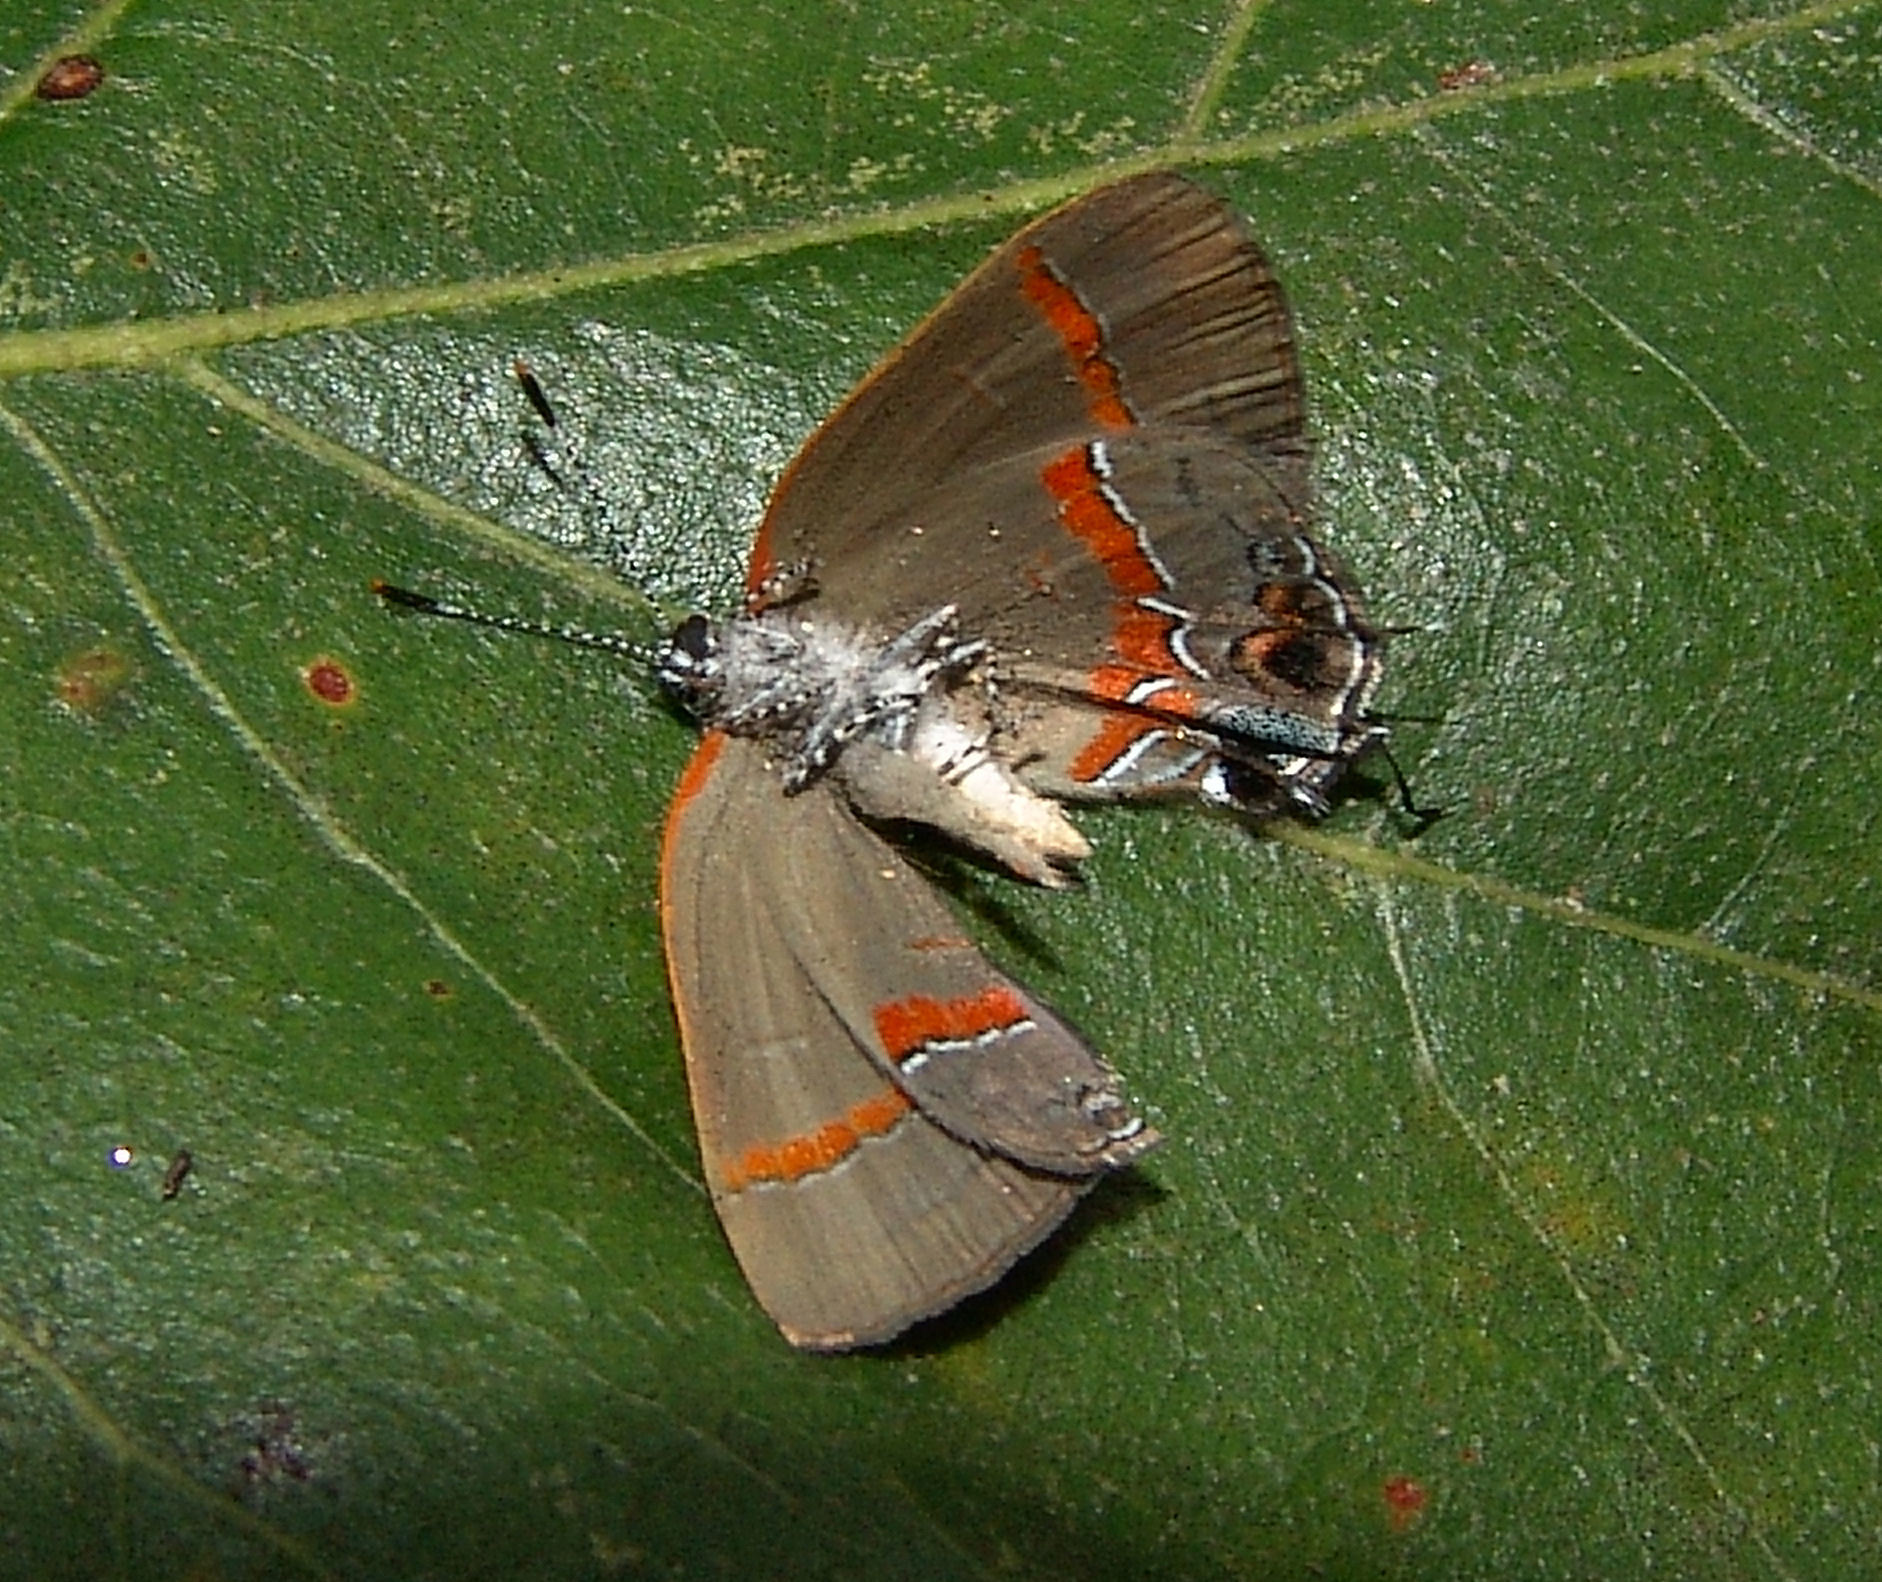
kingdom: Animalia
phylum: Arthropoda
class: Insecta
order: Lepidoptera
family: Lycaenidae
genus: Calycopis
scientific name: Calycopis cecrops
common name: Red-banded hairstreak
